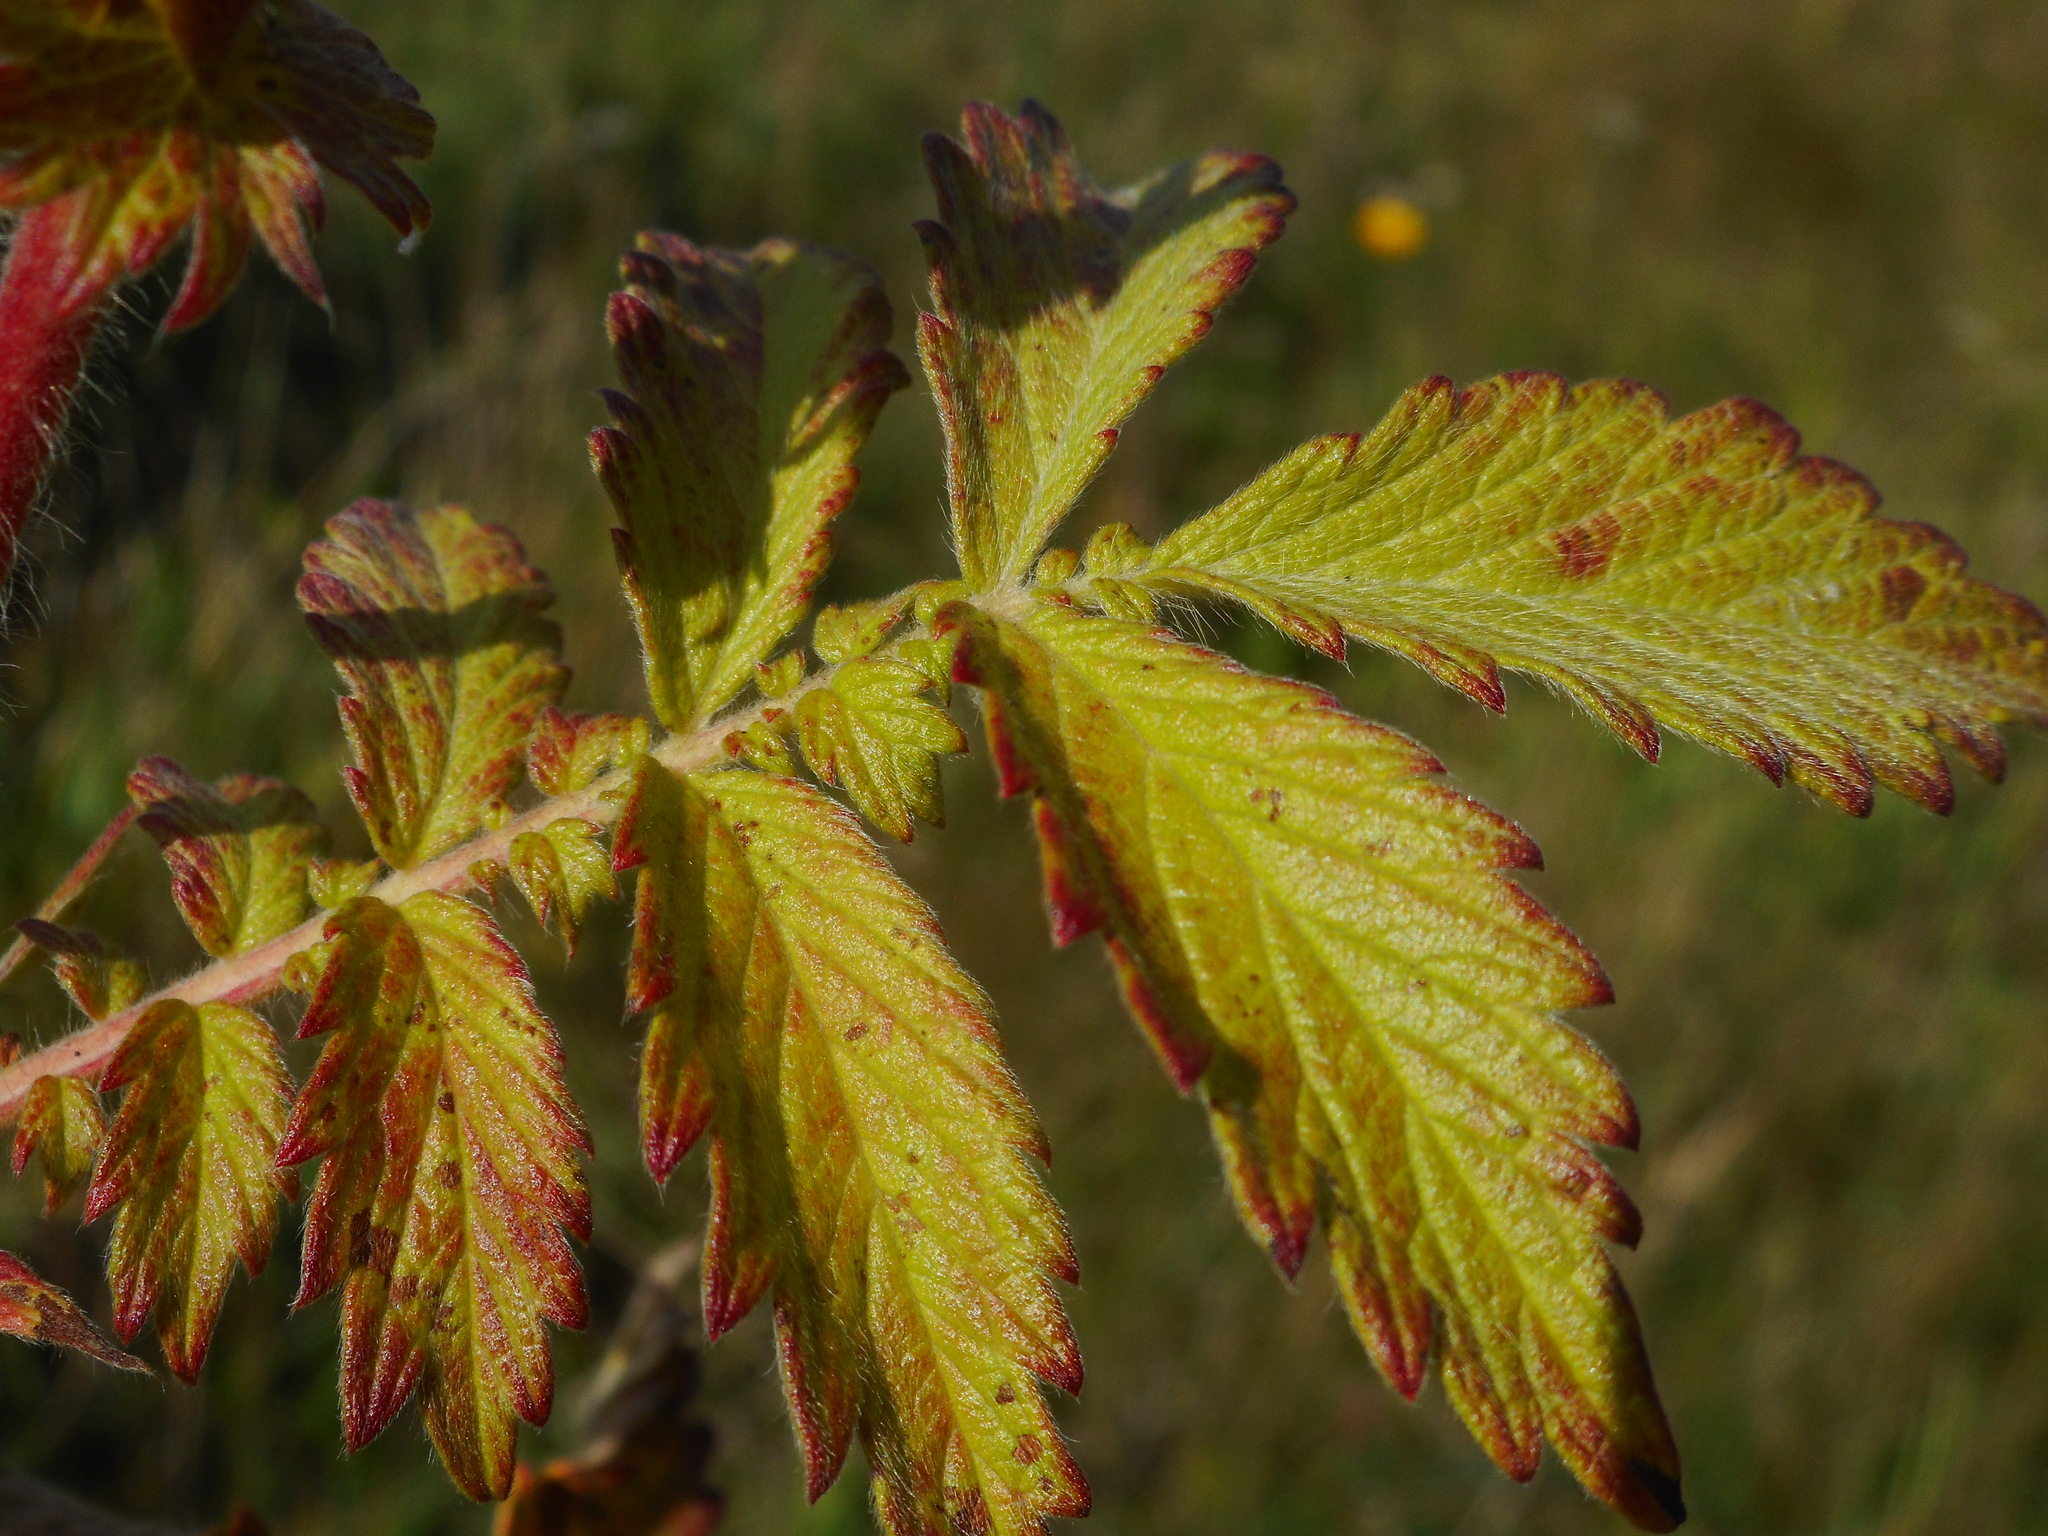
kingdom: Plantae
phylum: Tracheophyta
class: Magnoliopsida
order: Rosales
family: Rosaceae
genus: Agrimonia
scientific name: Agrimonia eupatoria
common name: Agrimony
